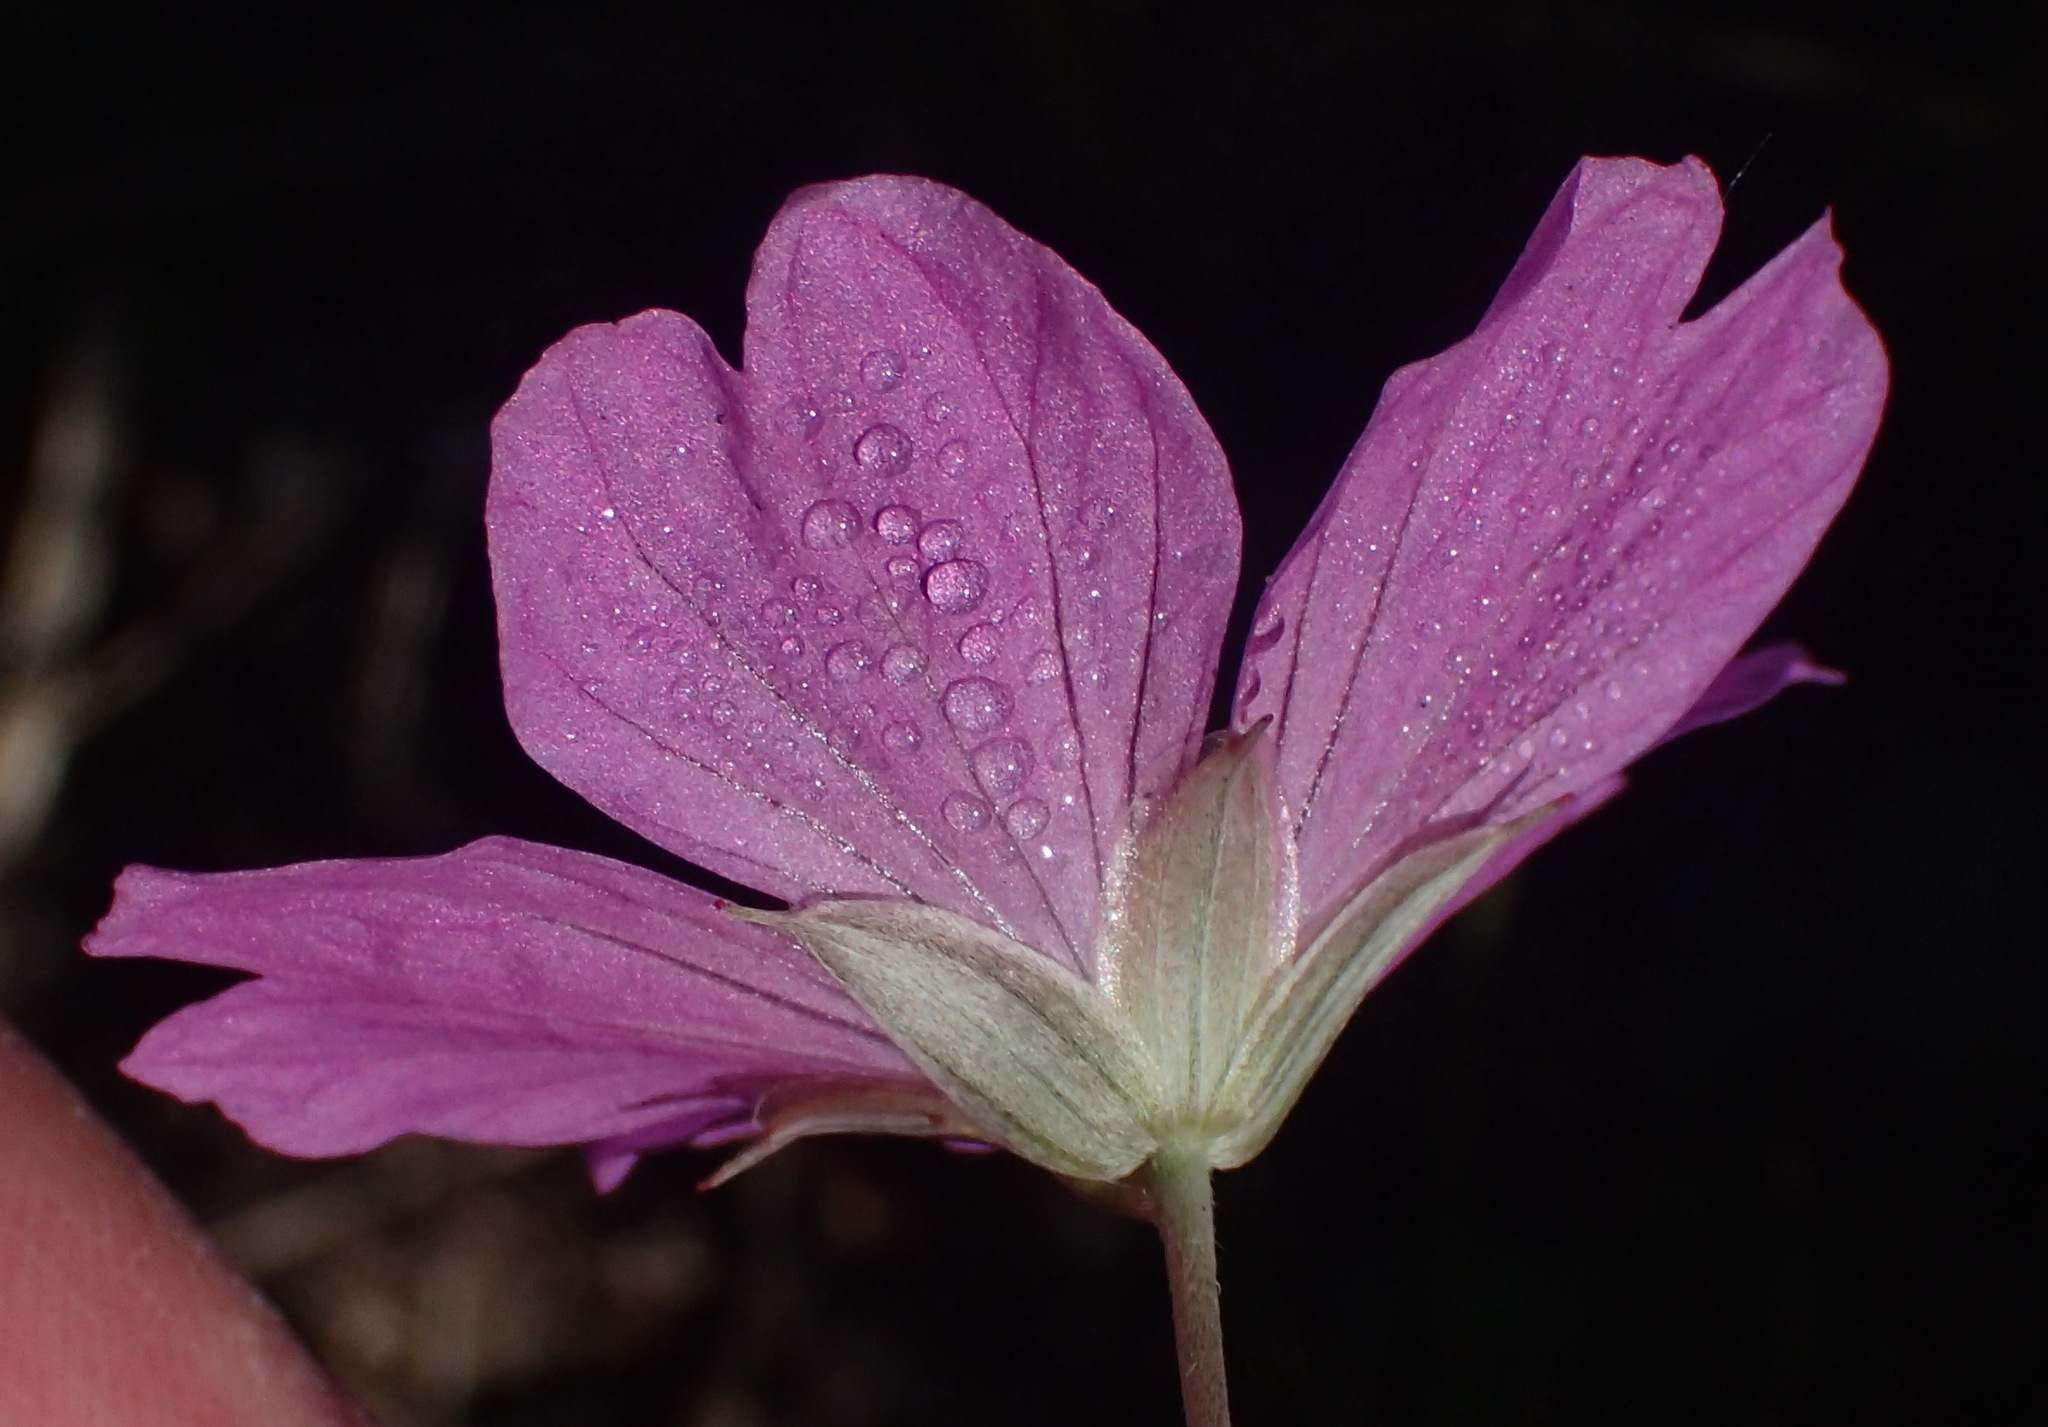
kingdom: Plantae
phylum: Tracheophyta
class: Magnoliopsida
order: Geraniales
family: Geraniaceae
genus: Geranium
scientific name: Geranium incanum
